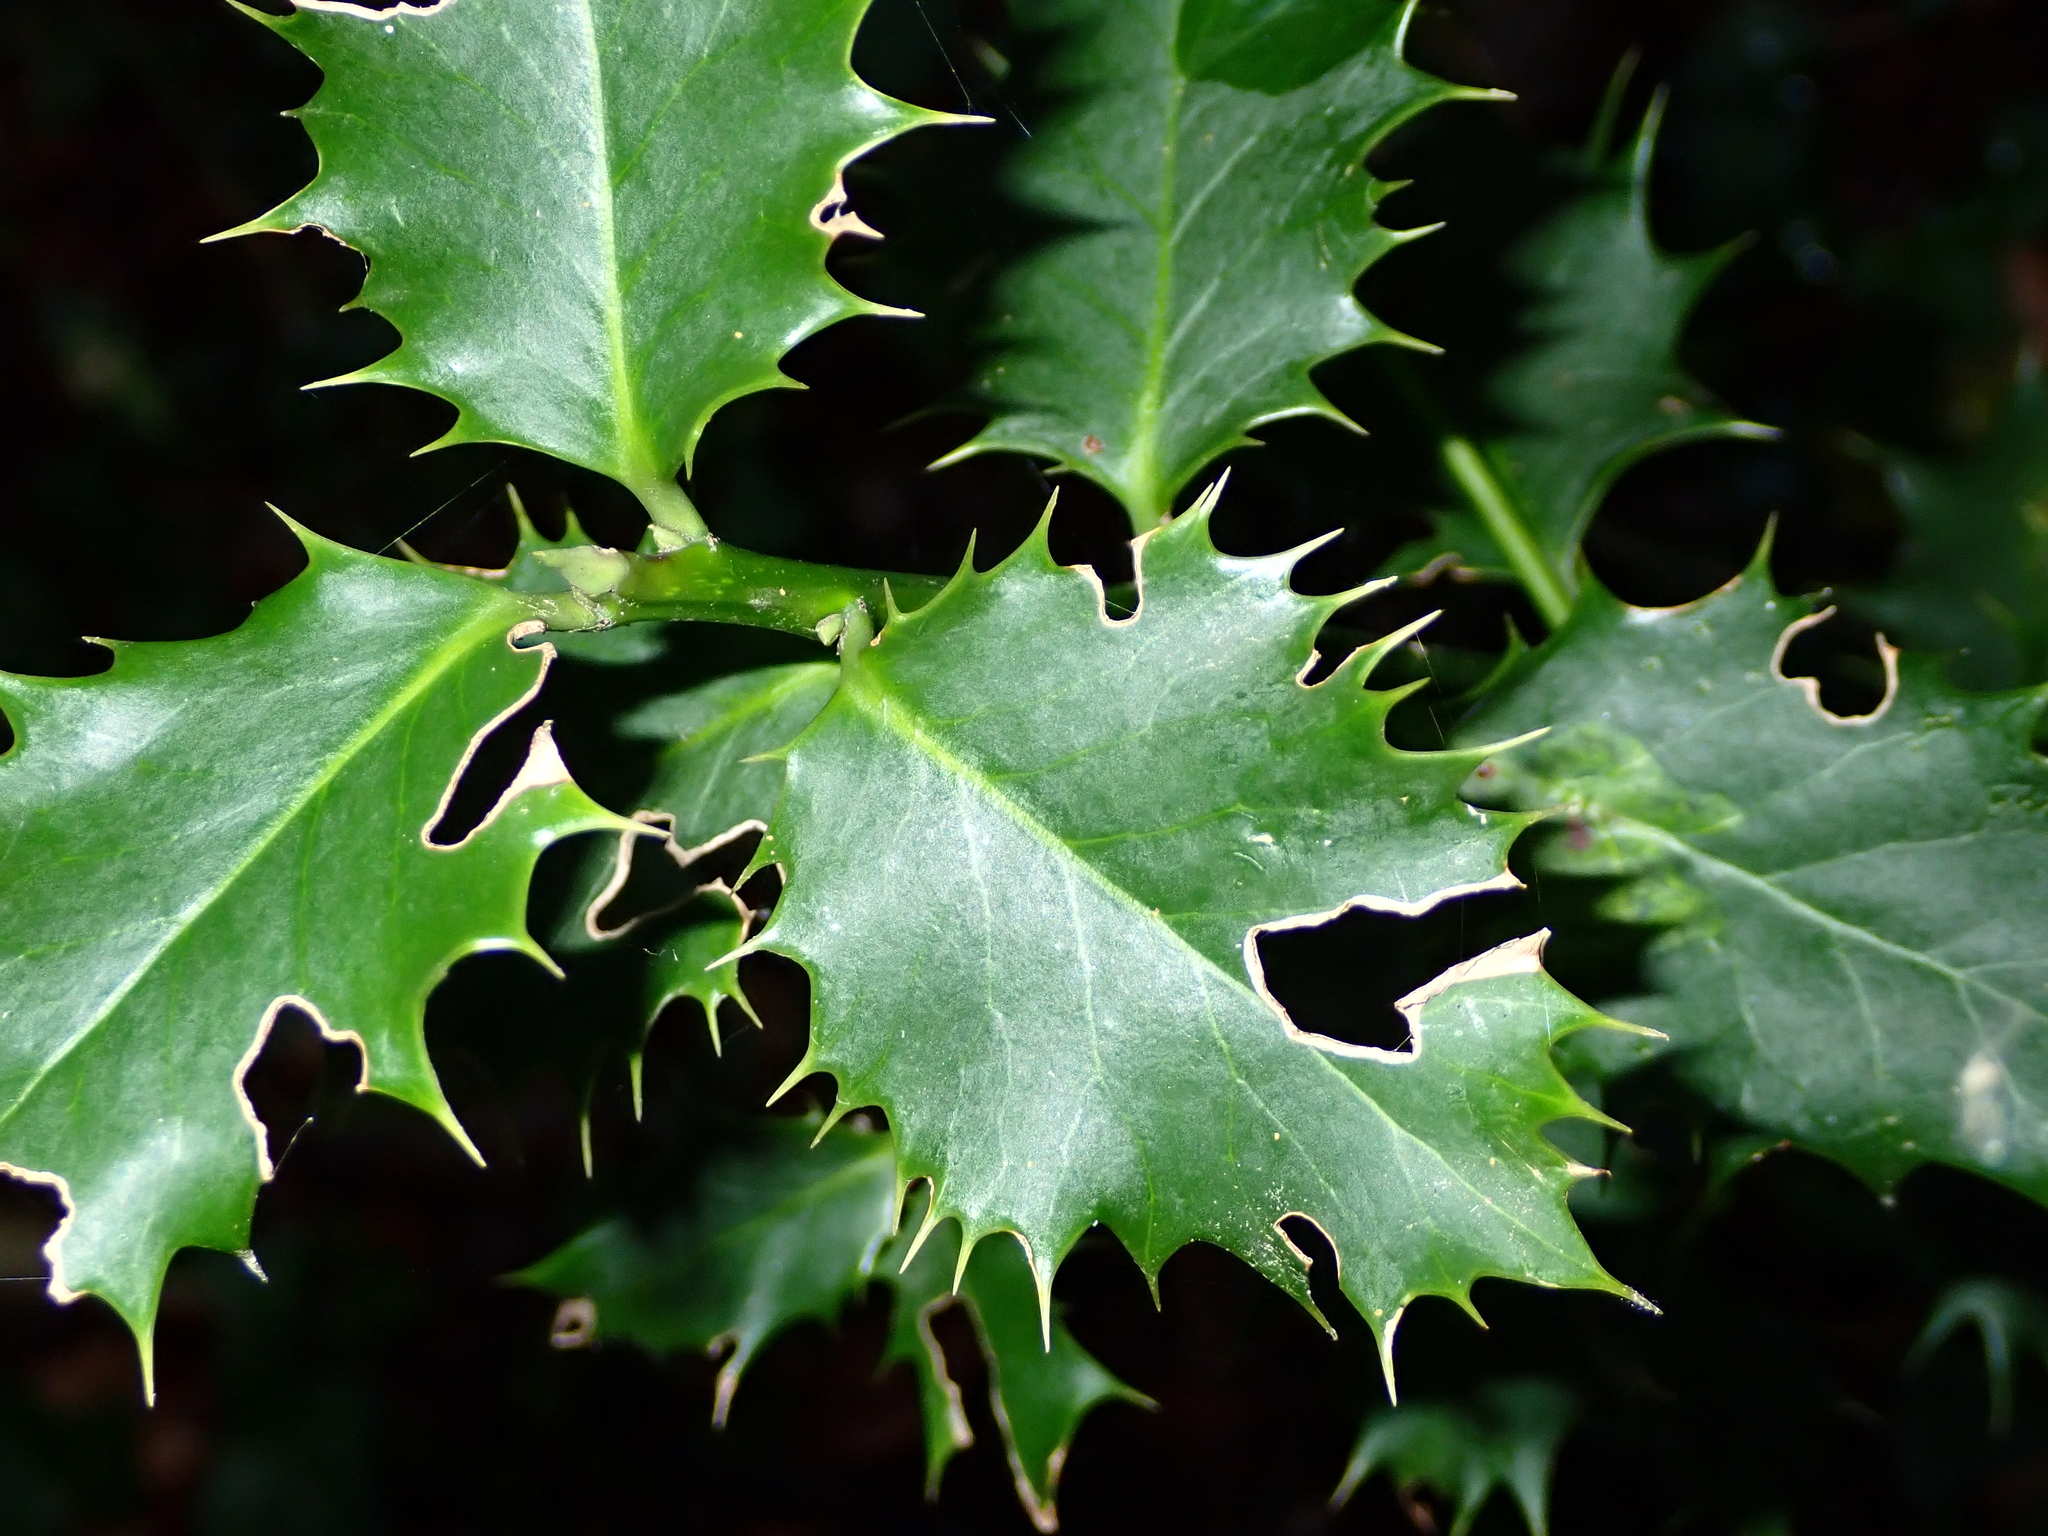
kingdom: Plantae
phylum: Tracheophyta
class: Magnoliopsida
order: Aquifoliales
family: Aquifoliaceae
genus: Ilex
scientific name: Ilex aquifolium
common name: English holly
